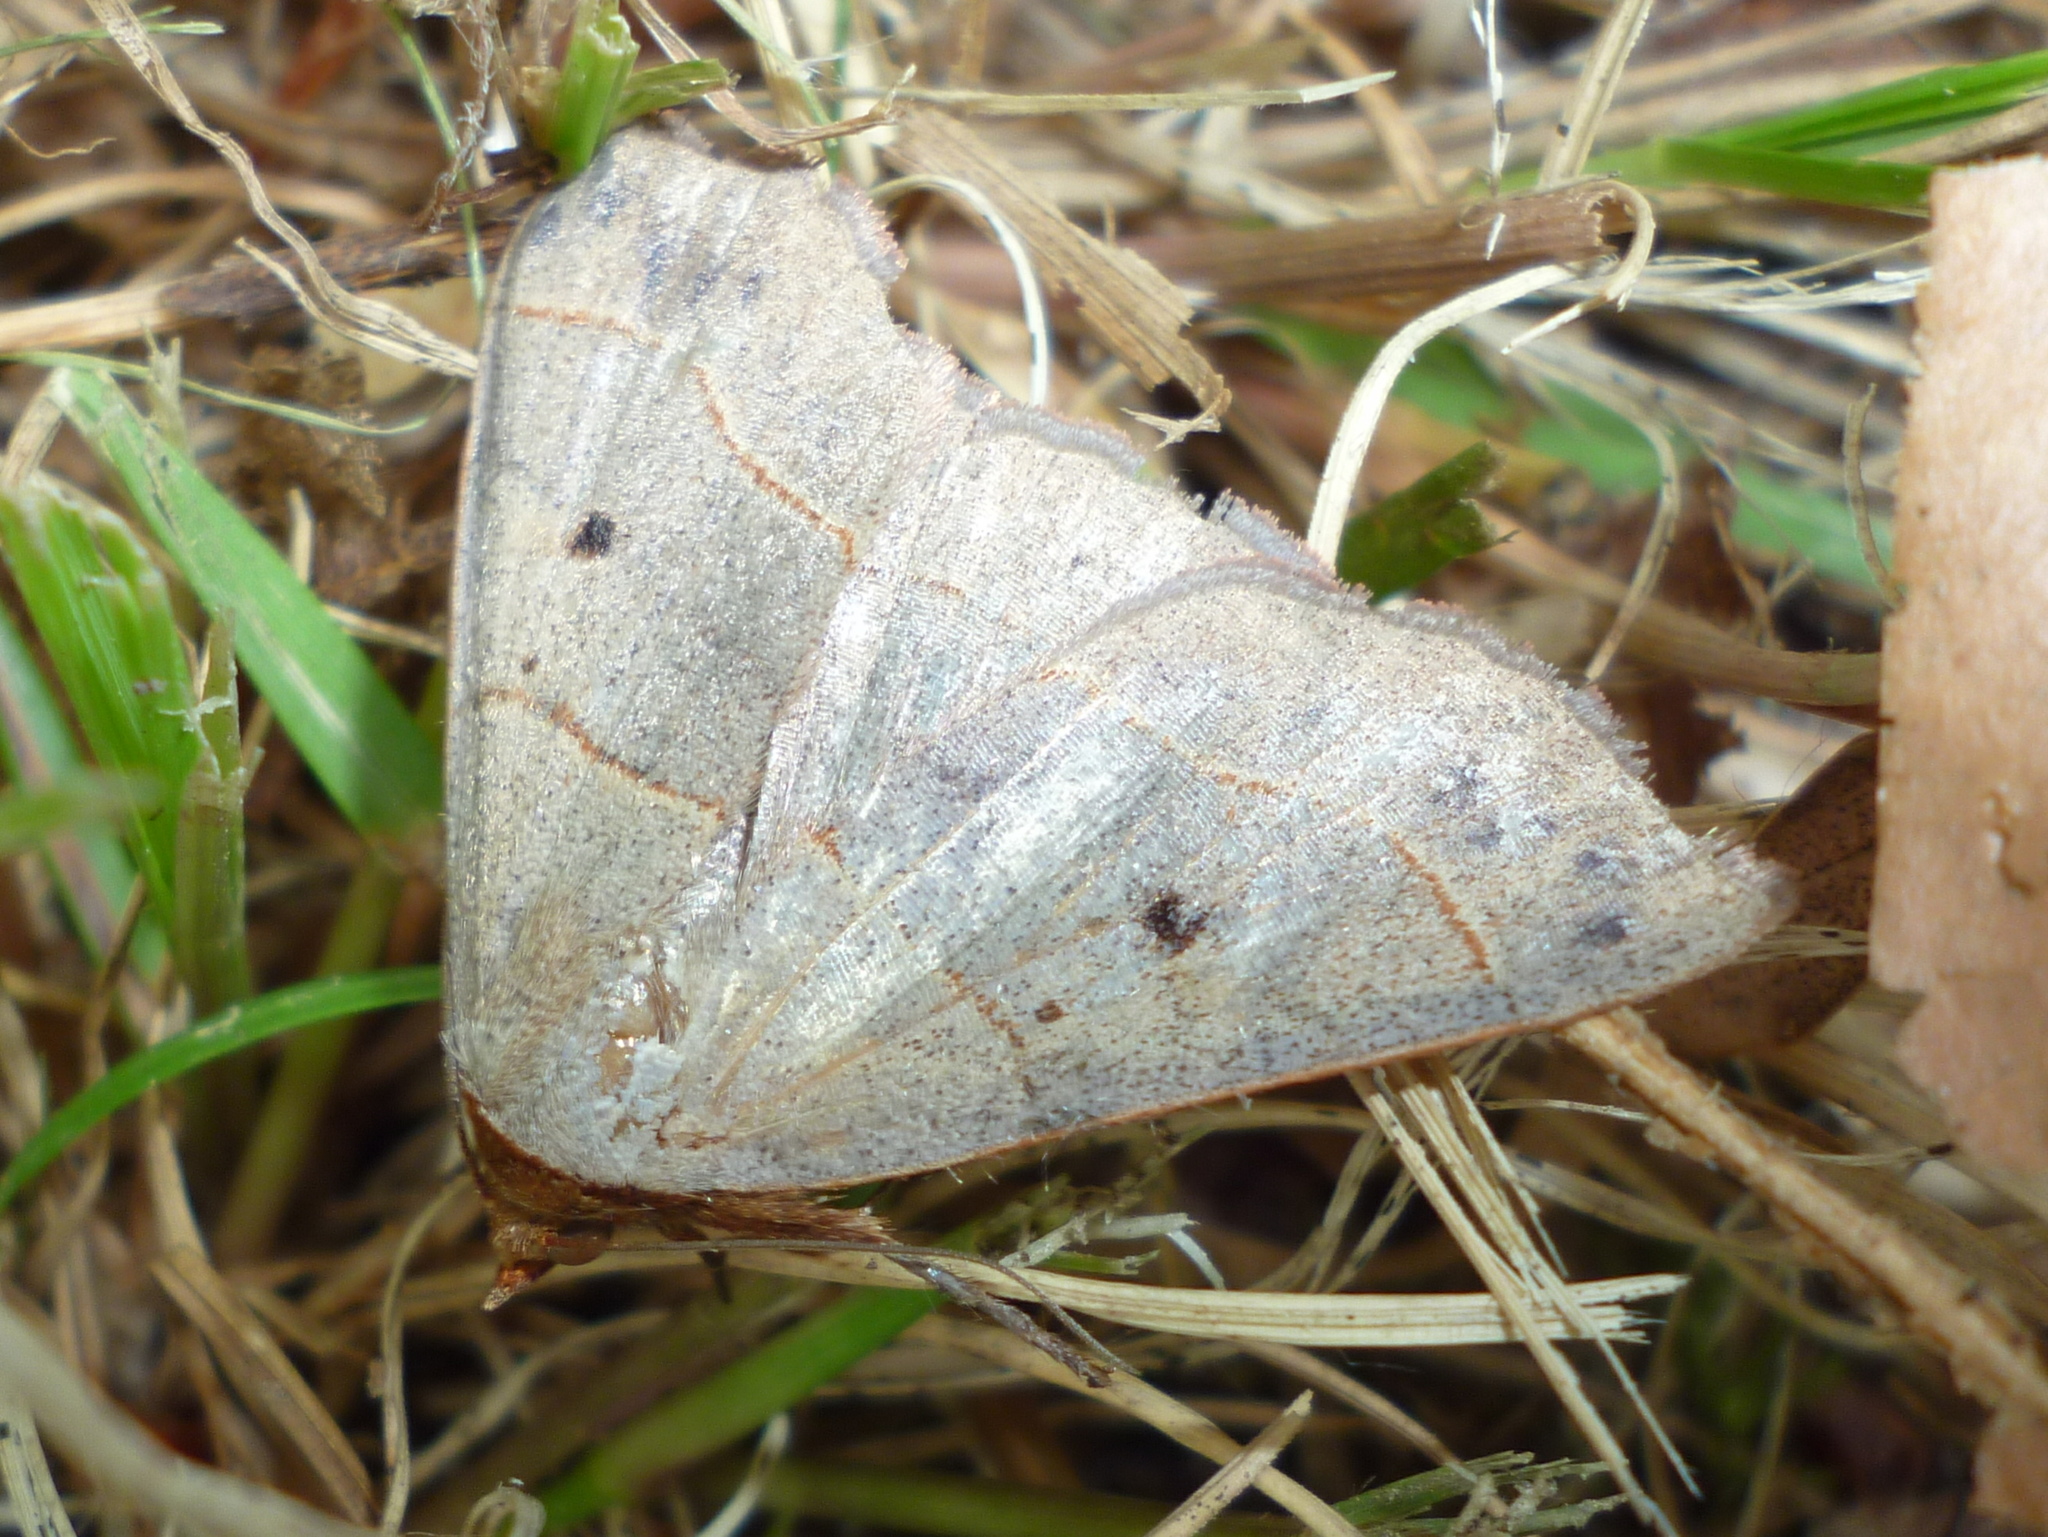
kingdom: Animalia
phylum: Arthropoda
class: Insecta
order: Lepidoptera
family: Erebidae
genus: Panopoda
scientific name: Panopoda rufimargo
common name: Red-lined panopoda moth
